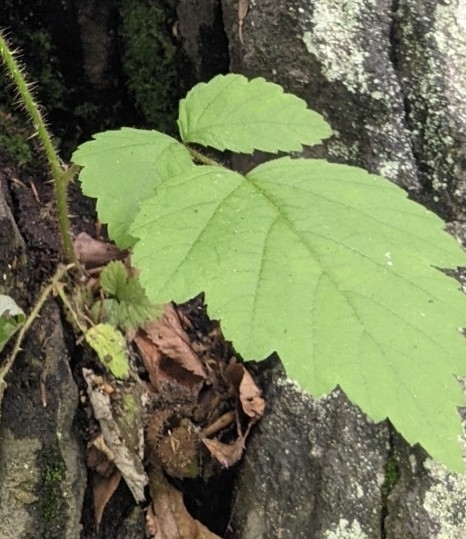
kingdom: Plantae
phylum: Tracheophyta
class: Magnoliopsida
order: Rosales
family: Rosaceae
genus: Rubus
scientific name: Rubus phoenicolasius
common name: Japanese wineberry
